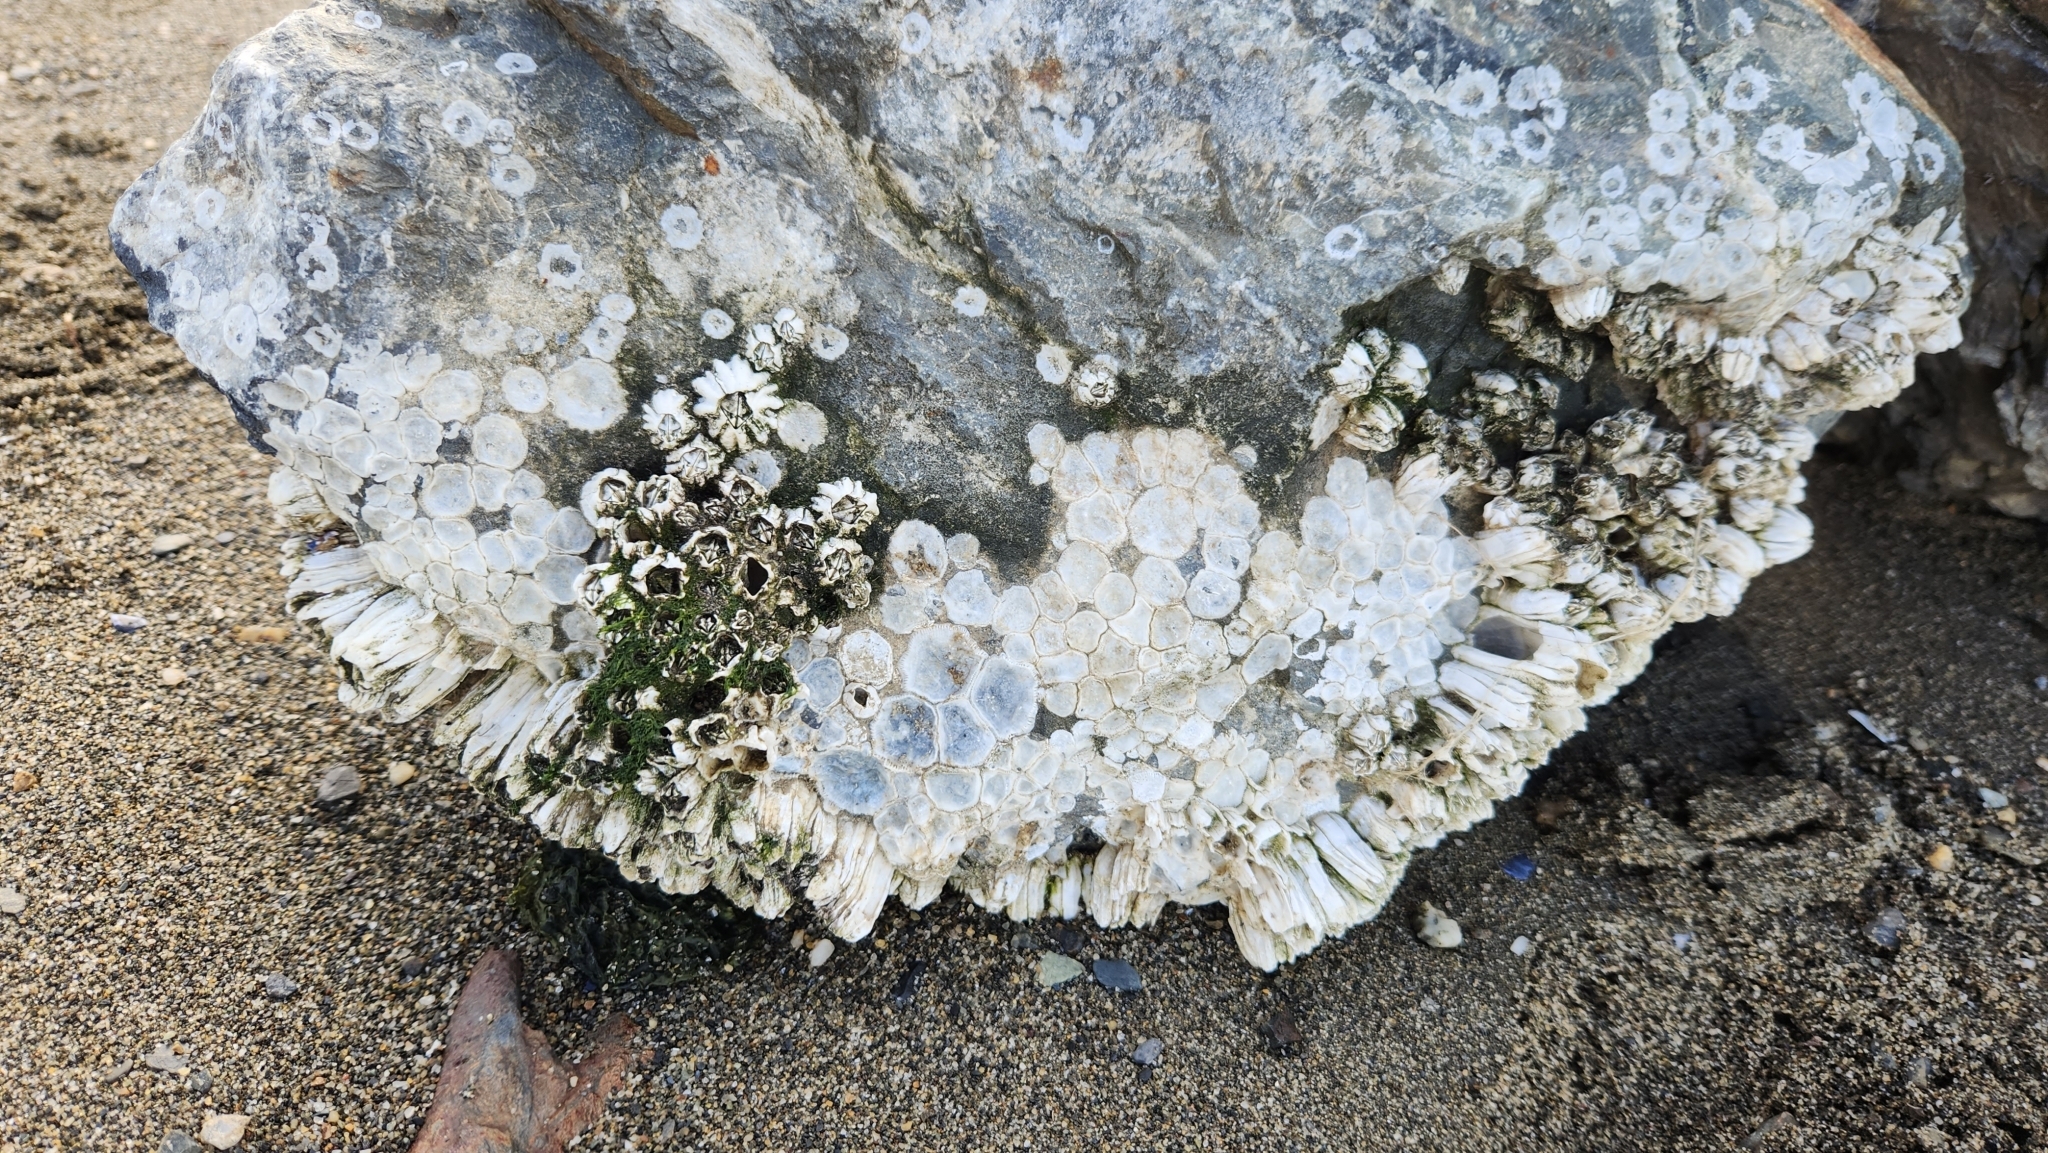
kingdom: Animalia
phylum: Arthropoda
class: Maxillopoda
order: Sessilia
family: Balanidae
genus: Balanus
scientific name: Balanus glandula
